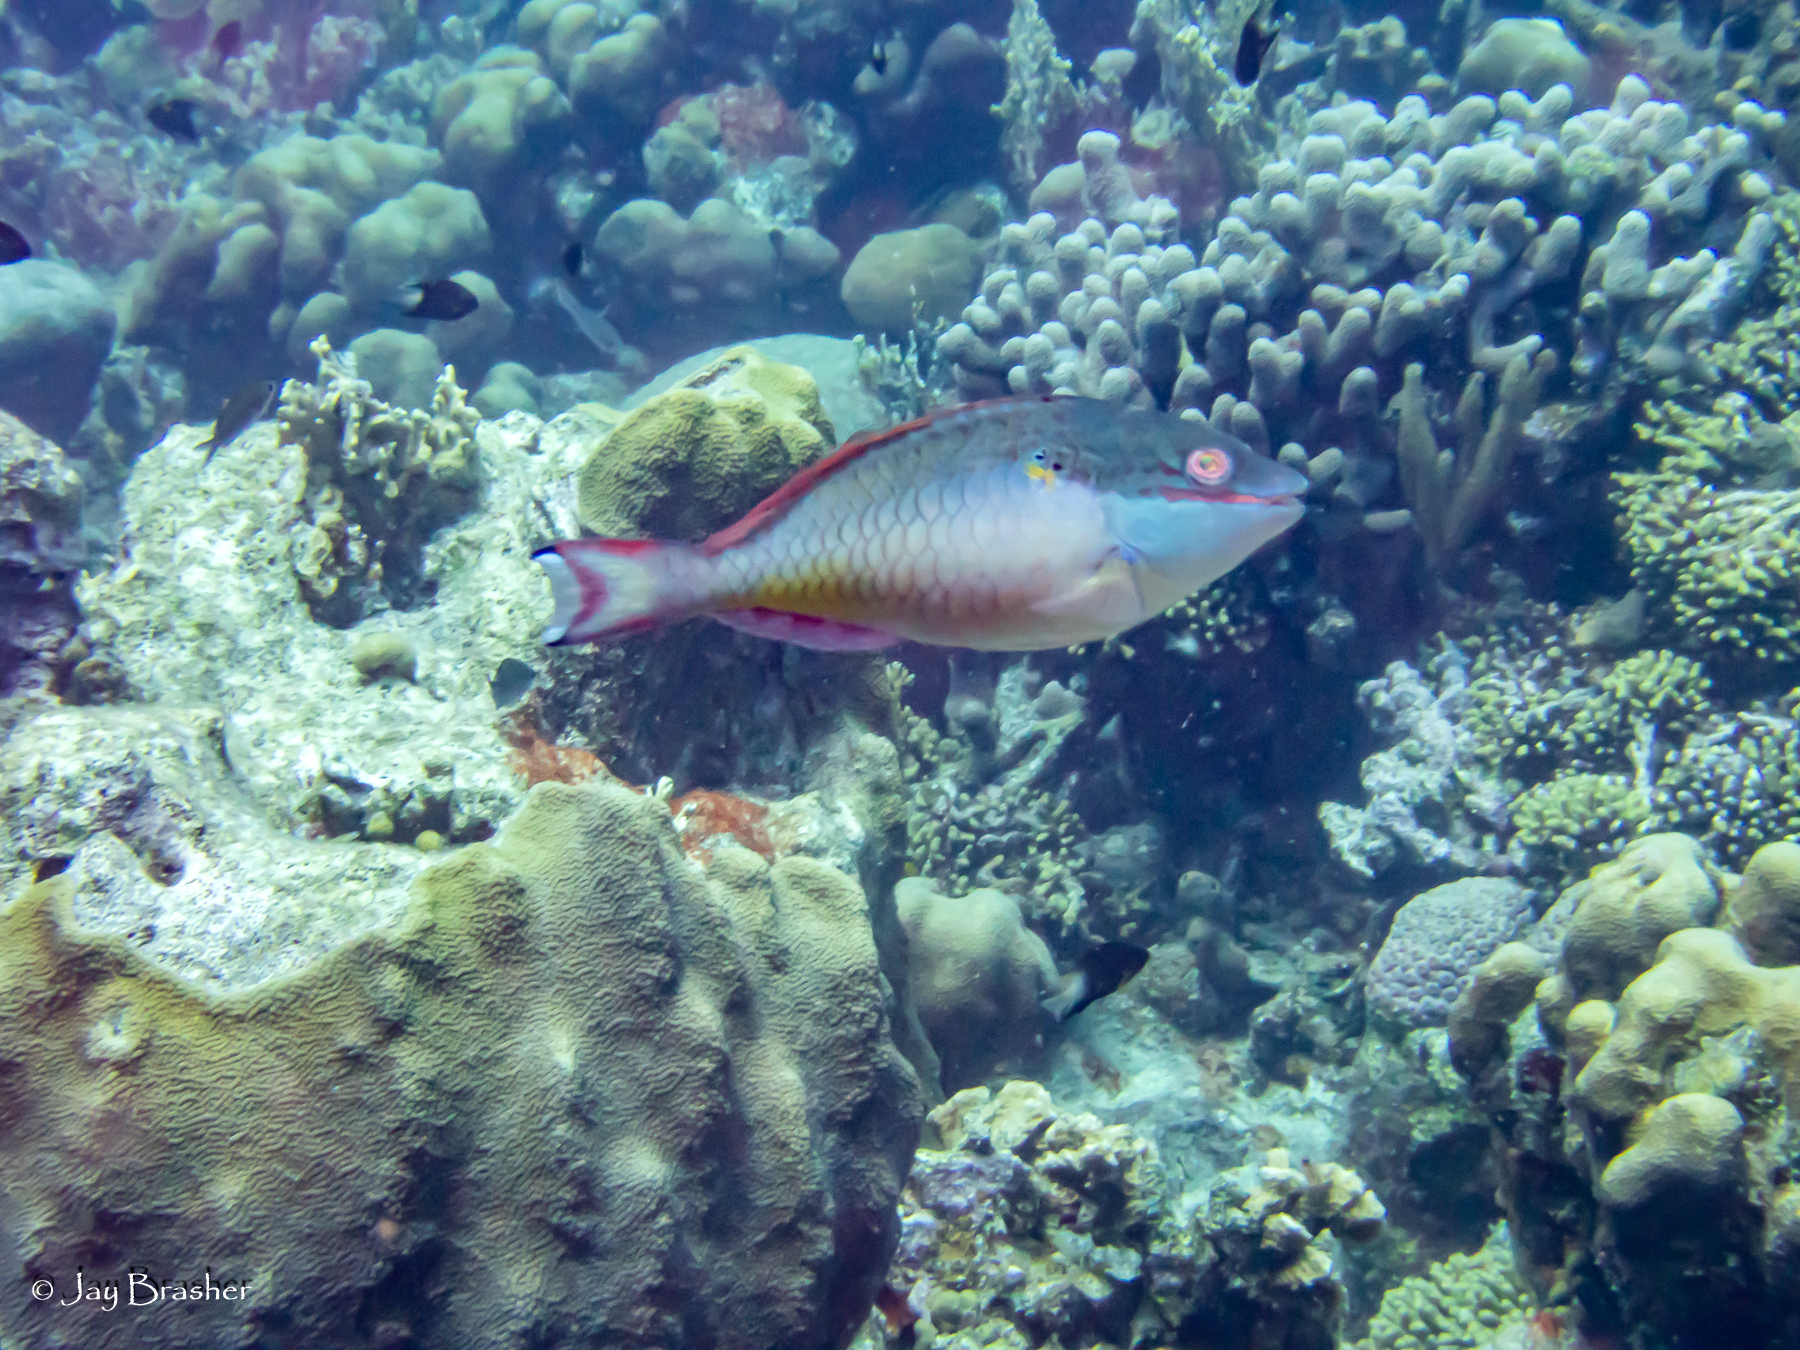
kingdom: Animalia
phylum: Chordata
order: Perciformes
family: Scaridae
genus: Sparisoma
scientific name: Sparisoma aurofrenatum
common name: Redband parrotfish
